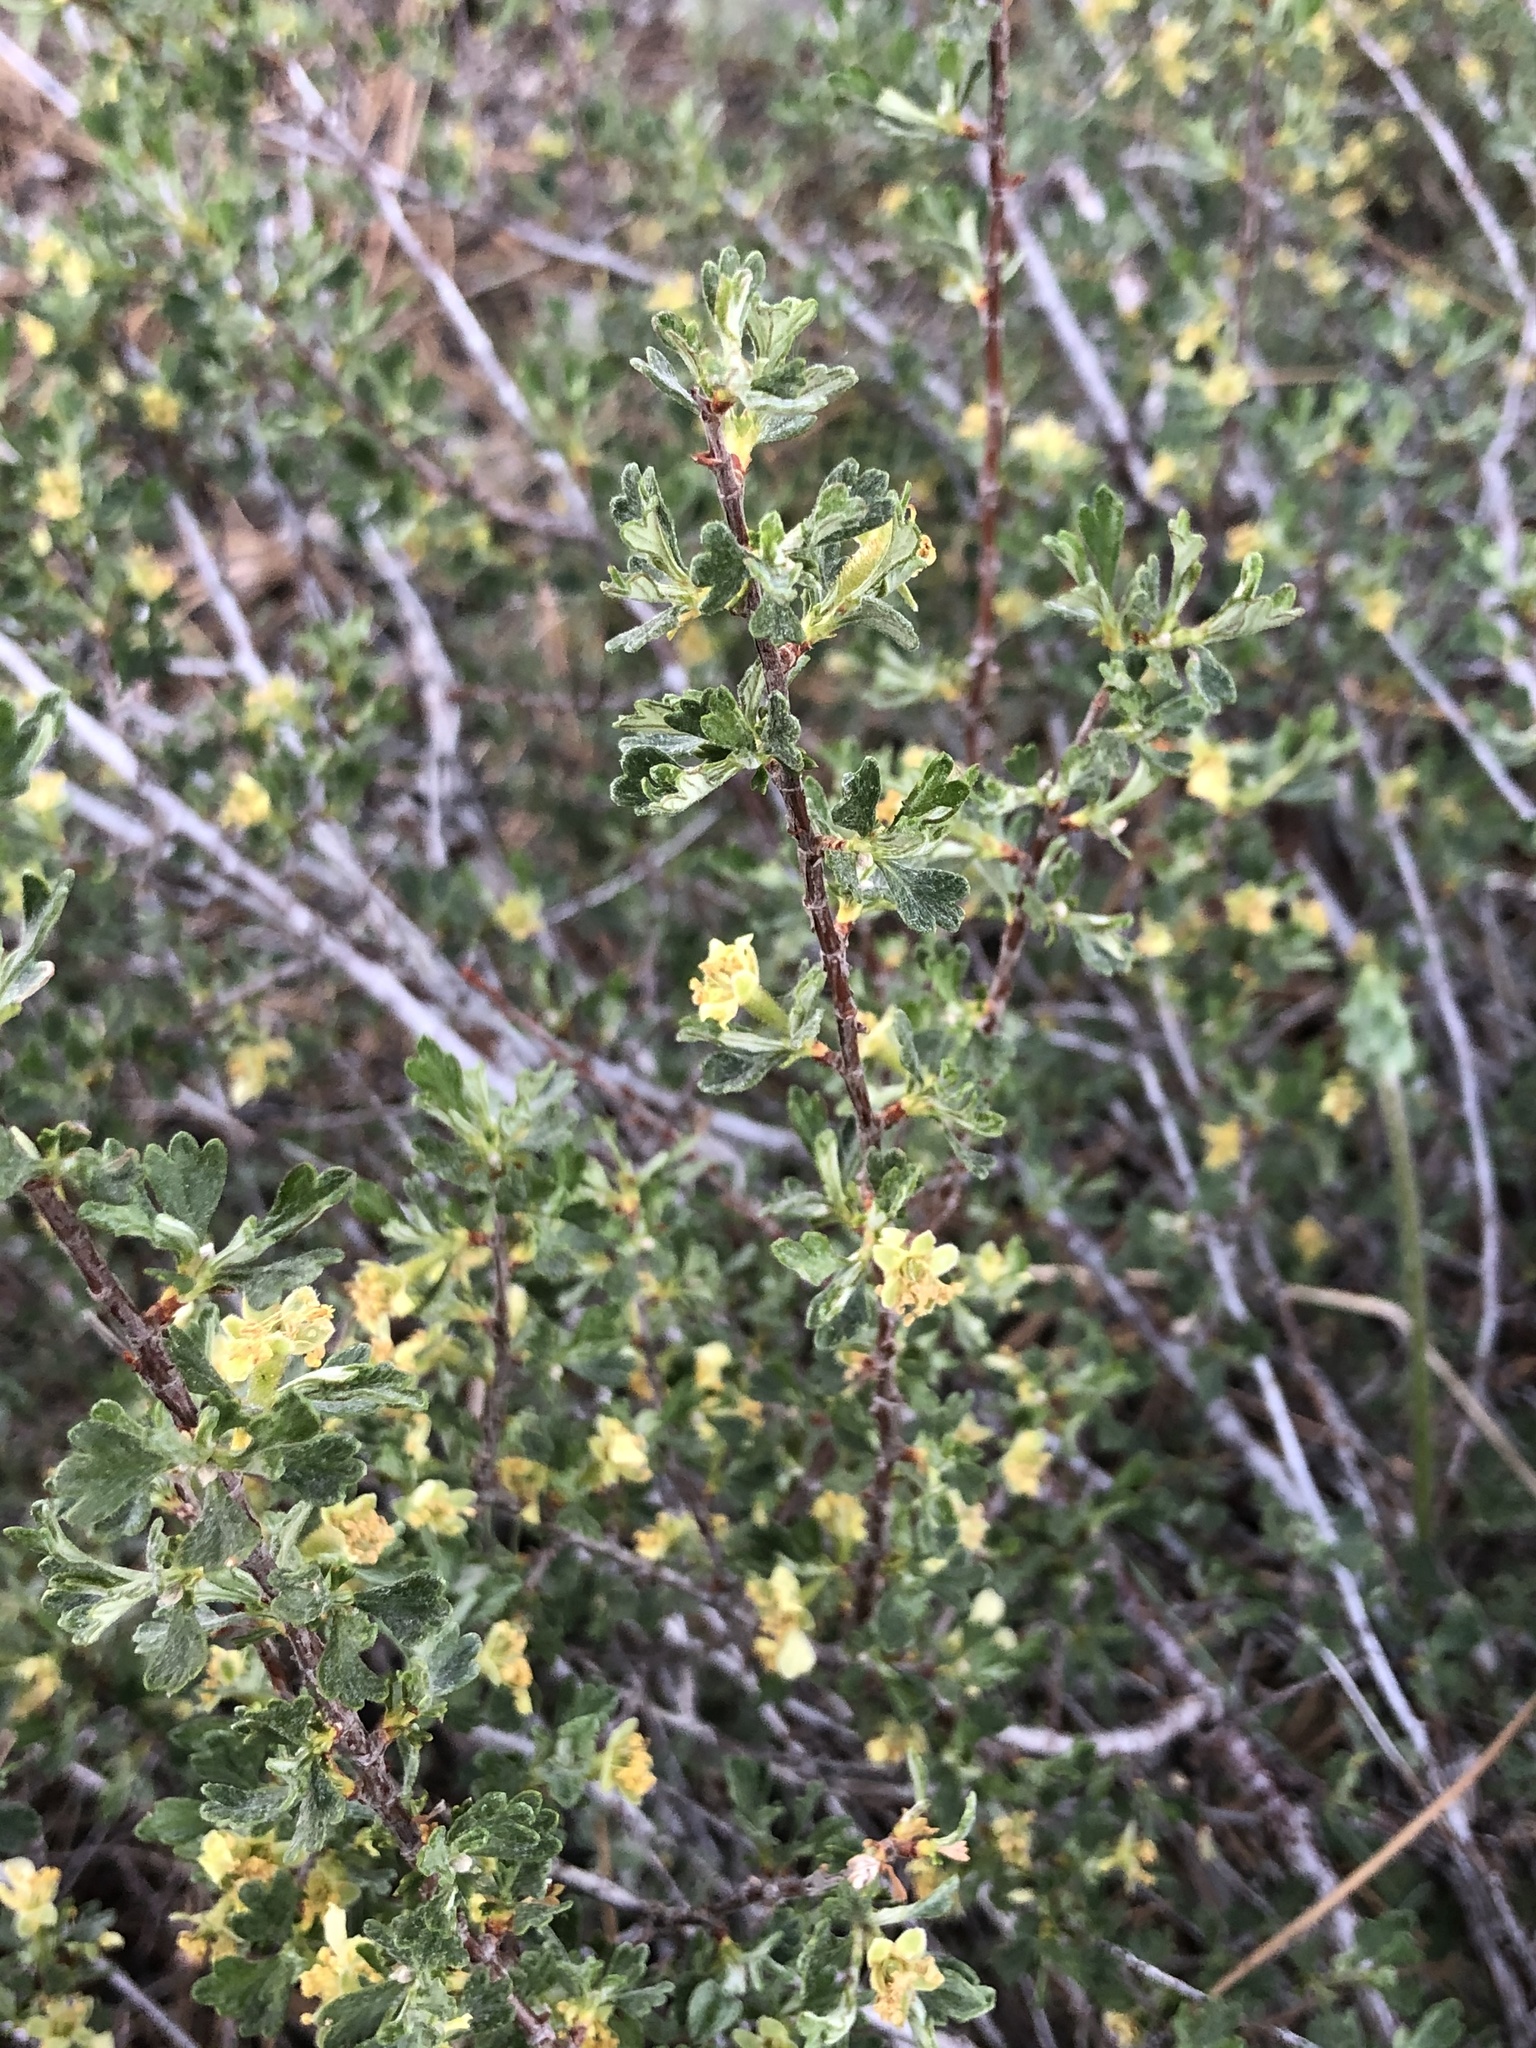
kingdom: Plantae
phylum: Tracheophyta
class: Magnoliopsida
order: Rosales
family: Rosaceae
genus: Purshia
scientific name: Purshia tridentata
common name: Antelope bitterbrush
